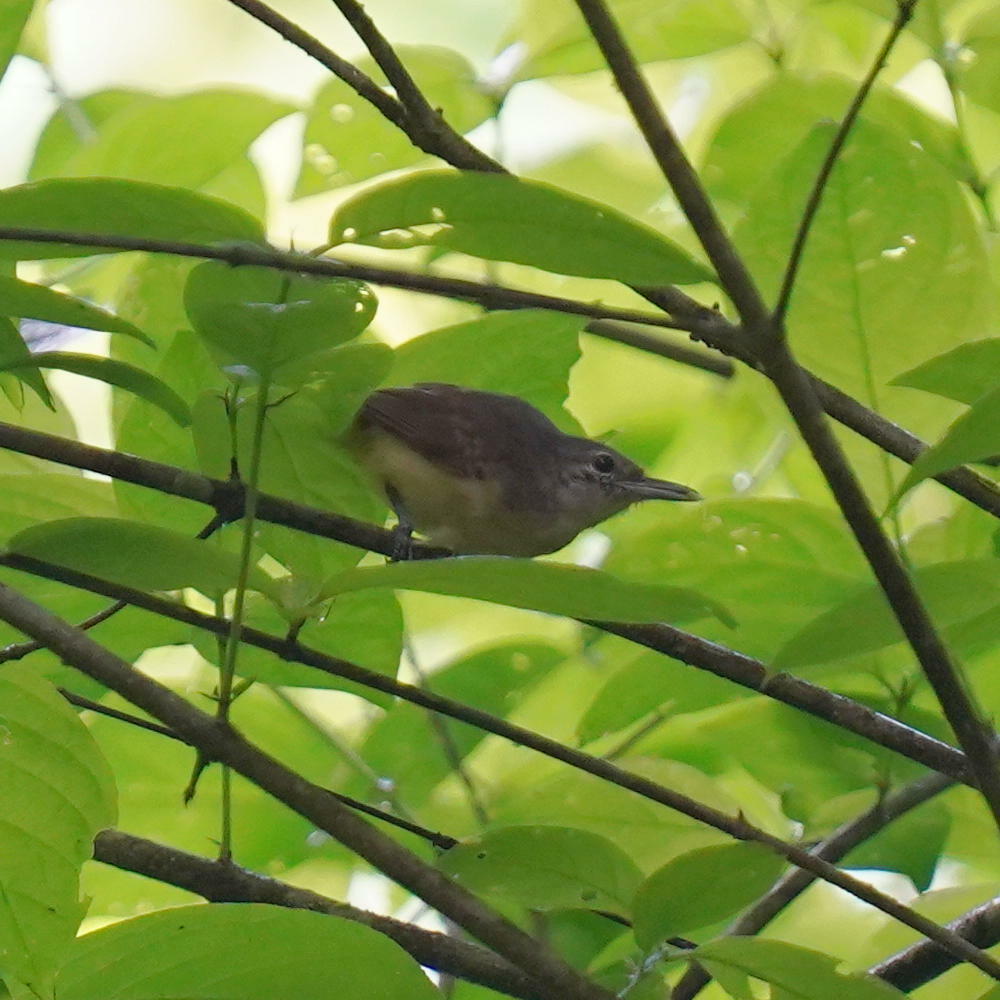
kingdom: Animalia
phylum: Chordata
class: Aves
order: Passeriformes
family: Thamnophilidae
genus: Myrmotherula
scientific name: Myrmotherula axillaris
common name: White-flanked antwren
